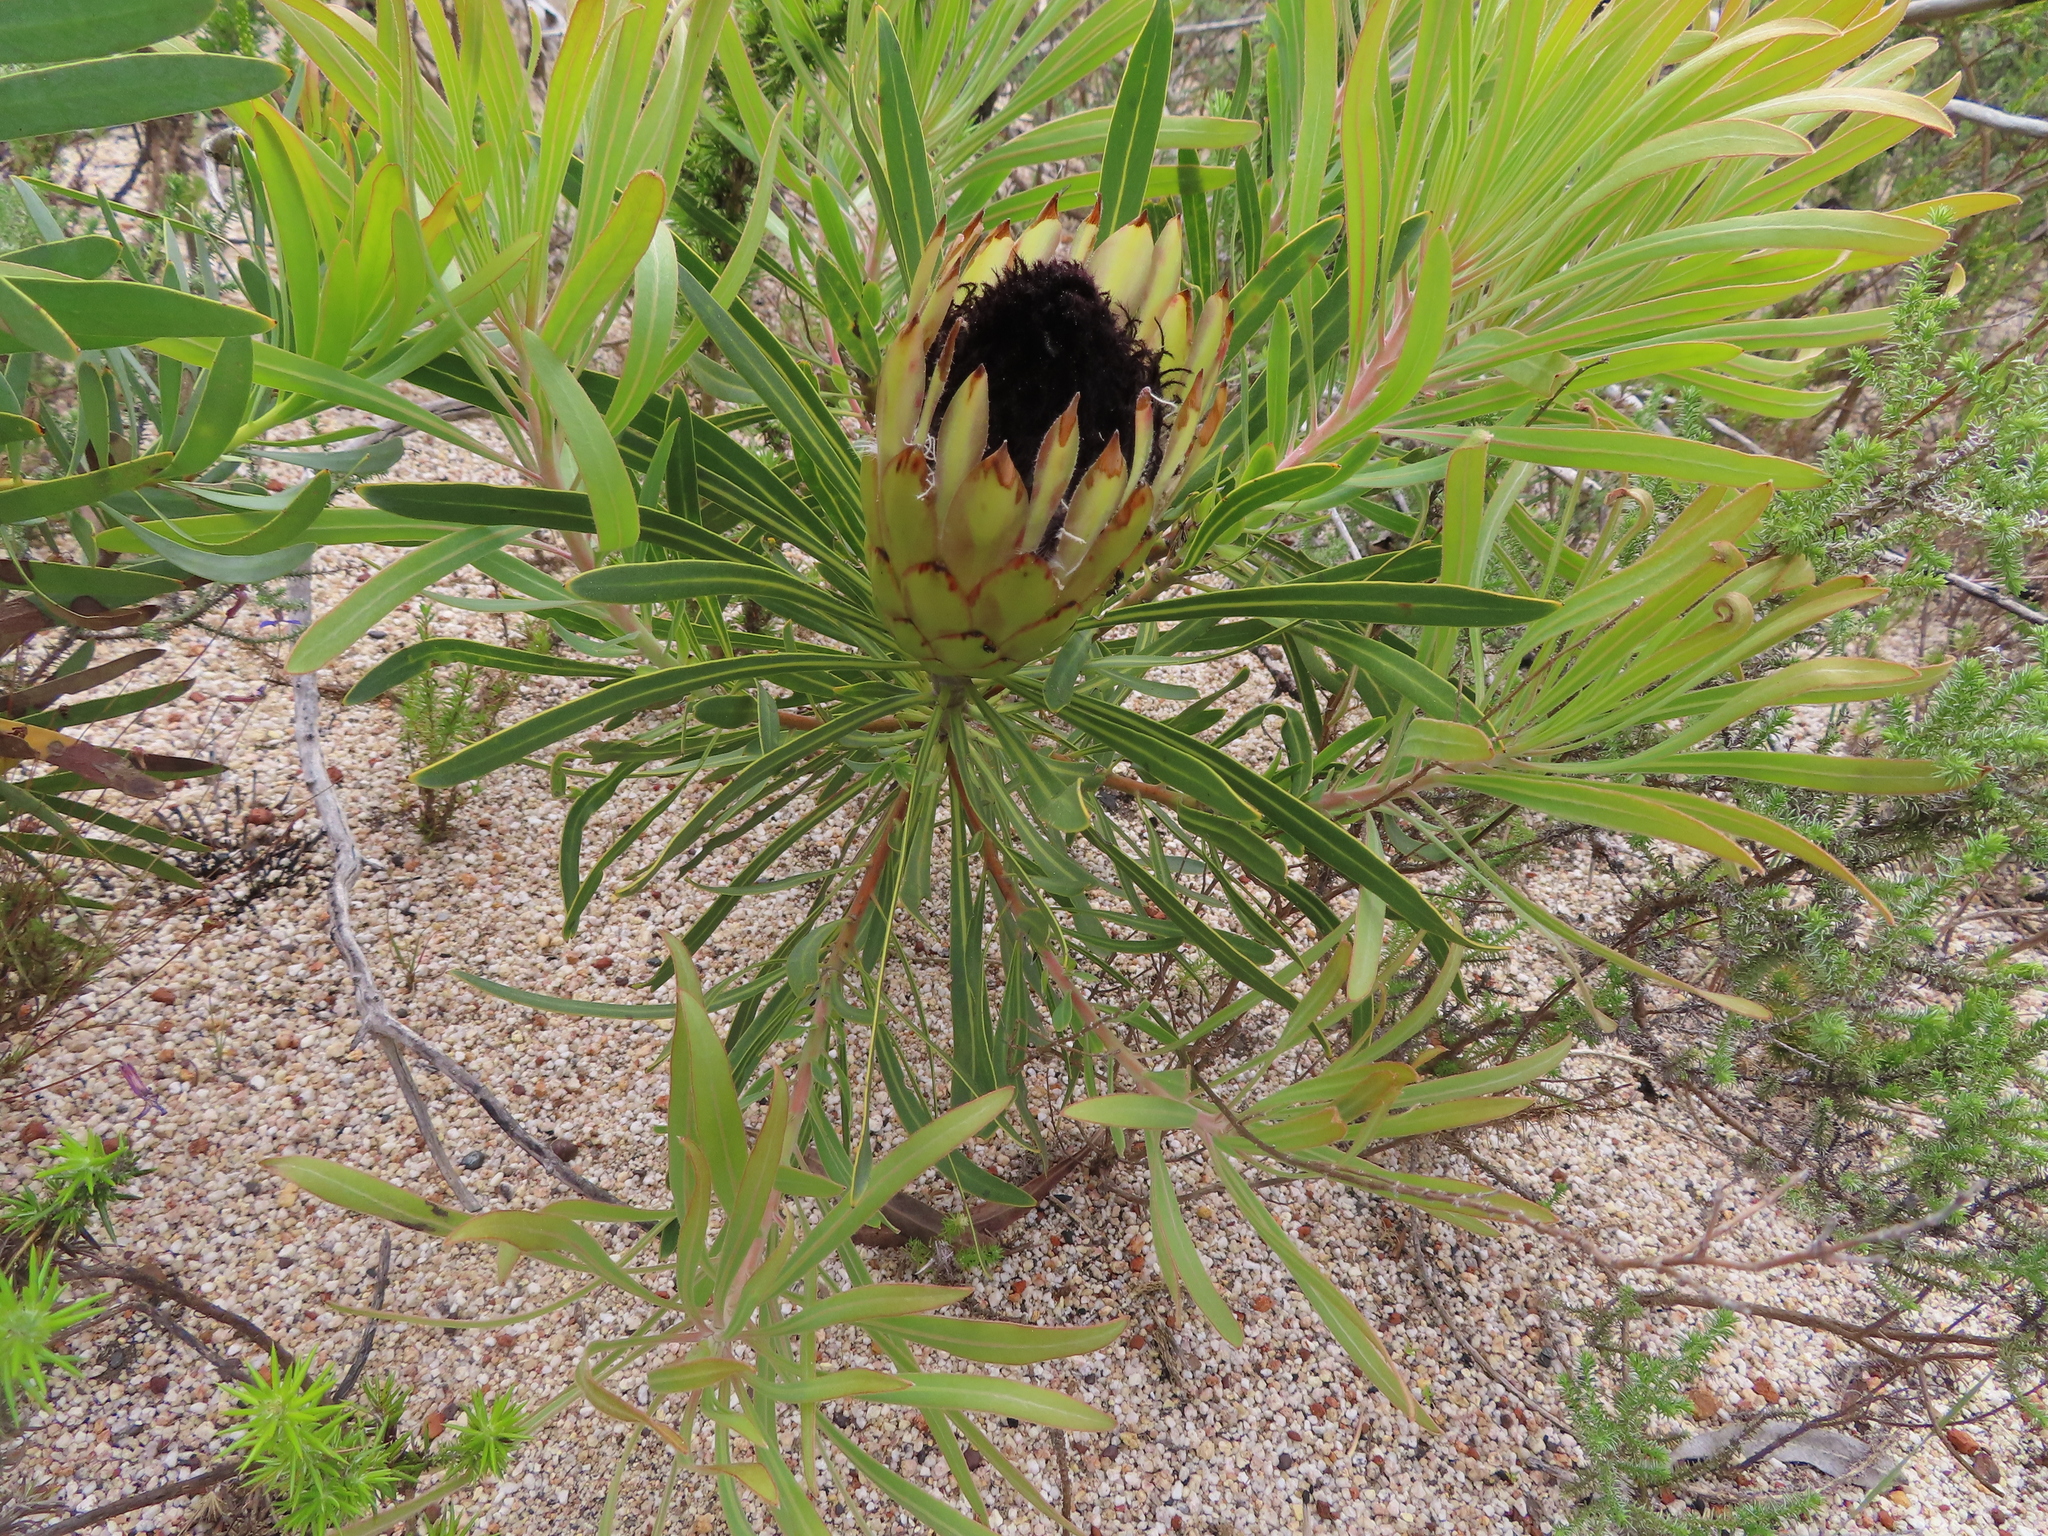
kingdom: Plantae
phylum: Tracheophyta
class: Magnoliopsida
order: Proteales
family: Proteaceae
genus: Protea
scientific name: Protea longifolia
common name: Long-leaf sugarbush
